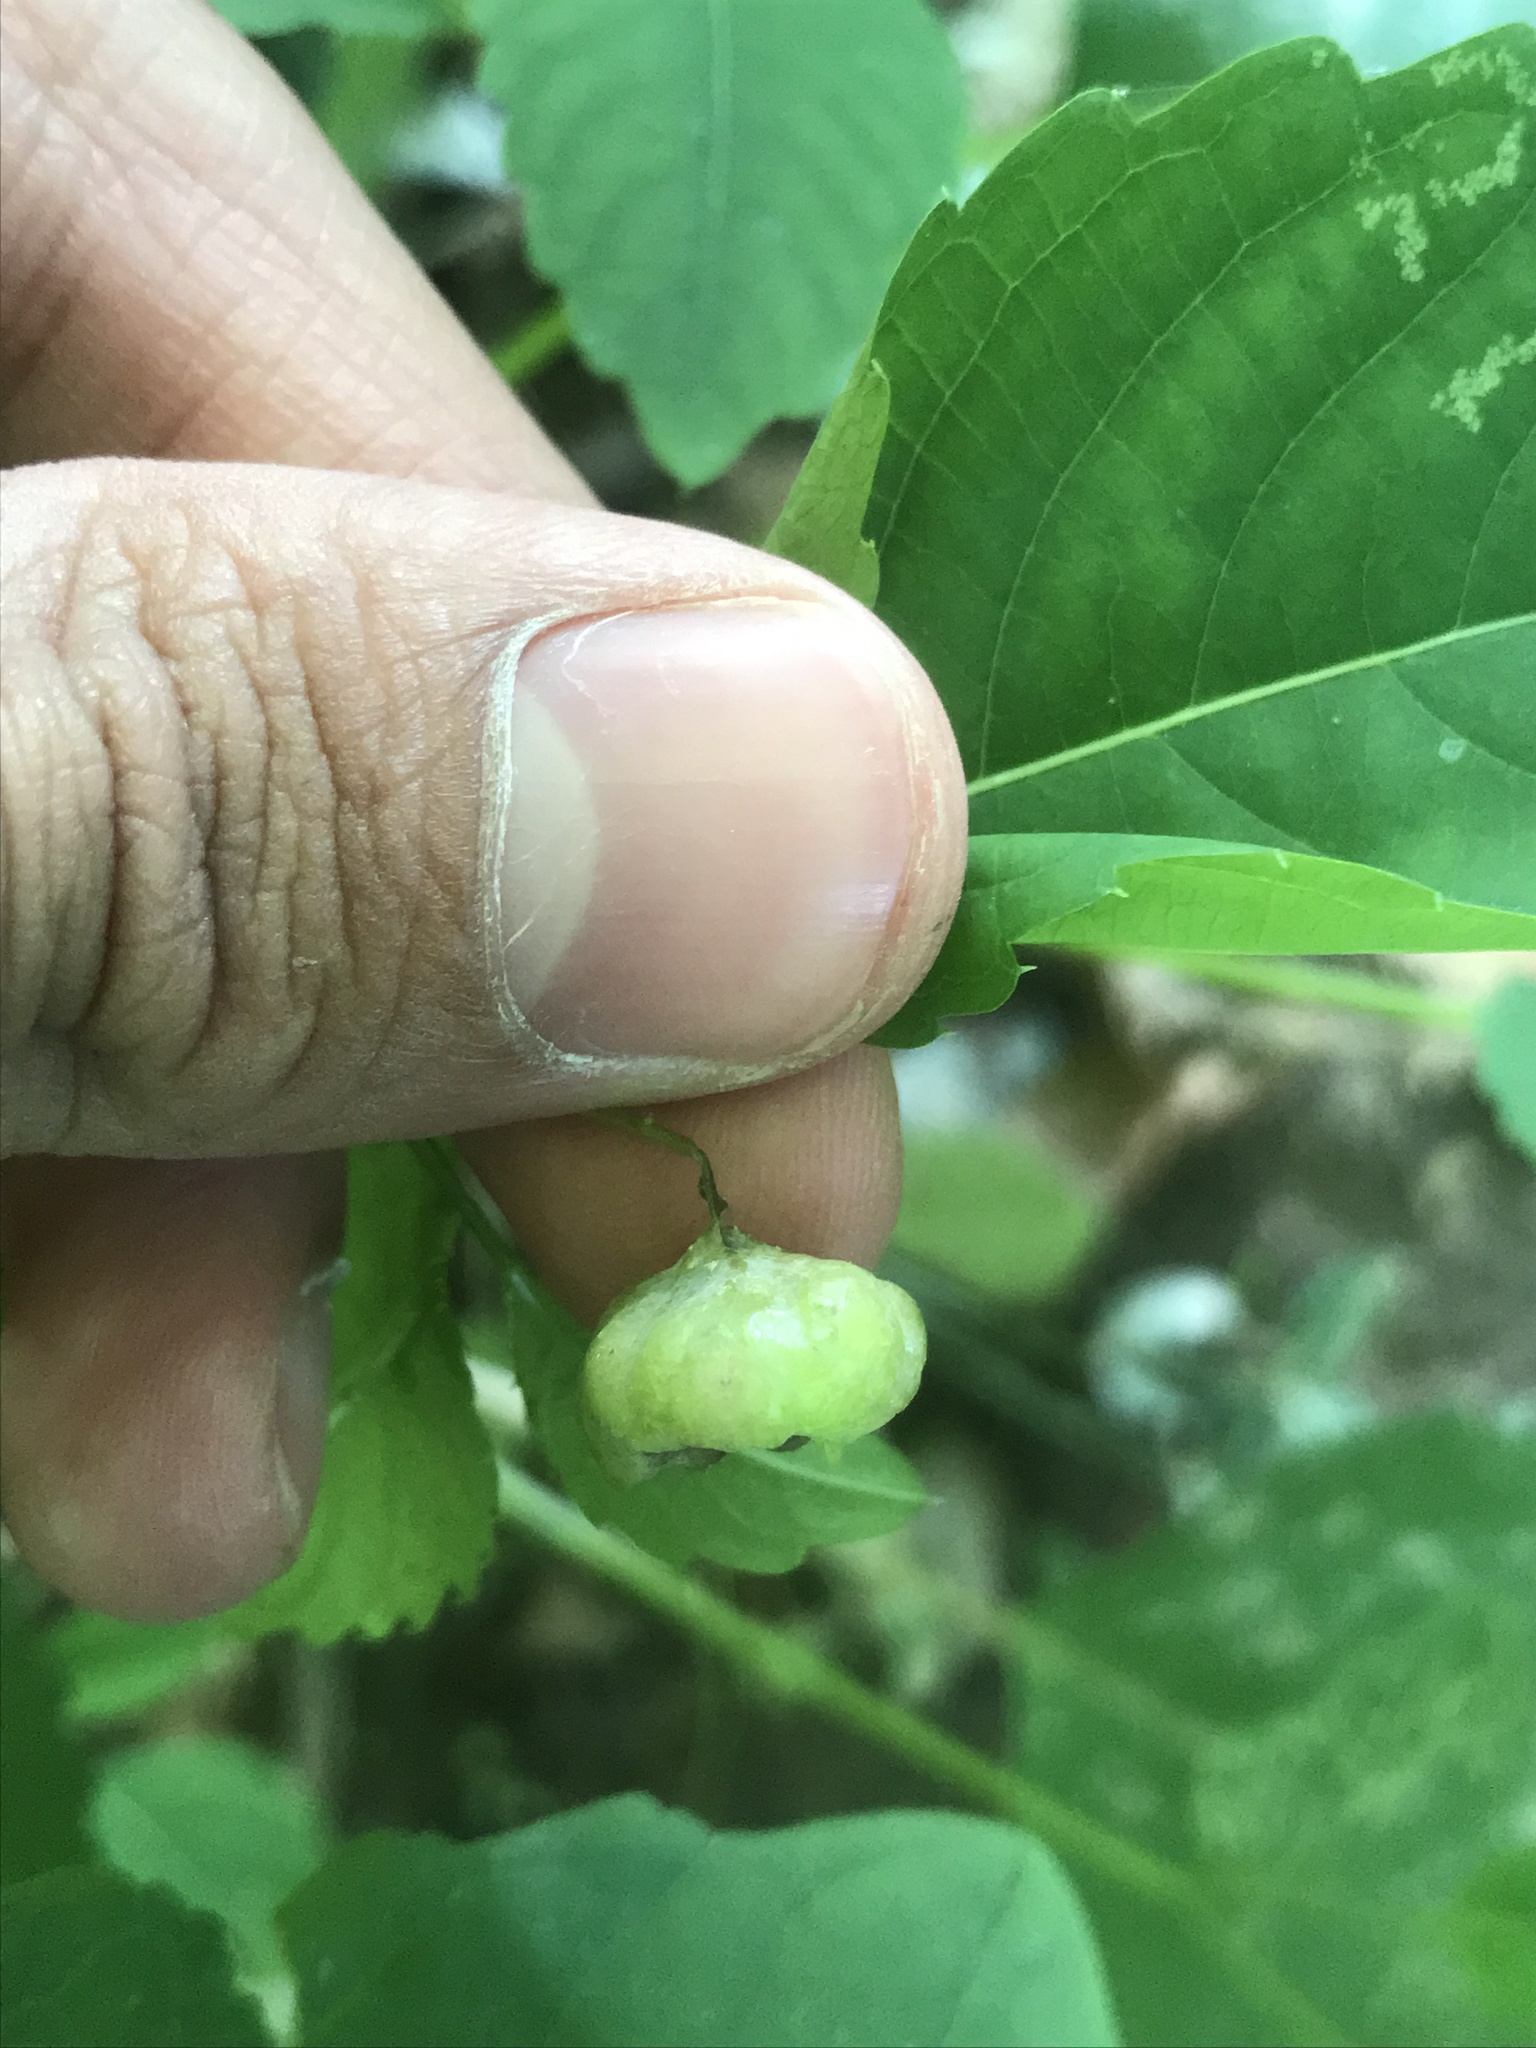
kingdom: Animalia
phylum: Arthropoda
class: Insecta
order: Diptera
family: Cecidomyiidae
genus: Schizomyia
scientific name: Schizomyia impatientis
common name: Jewelweed gall midge
